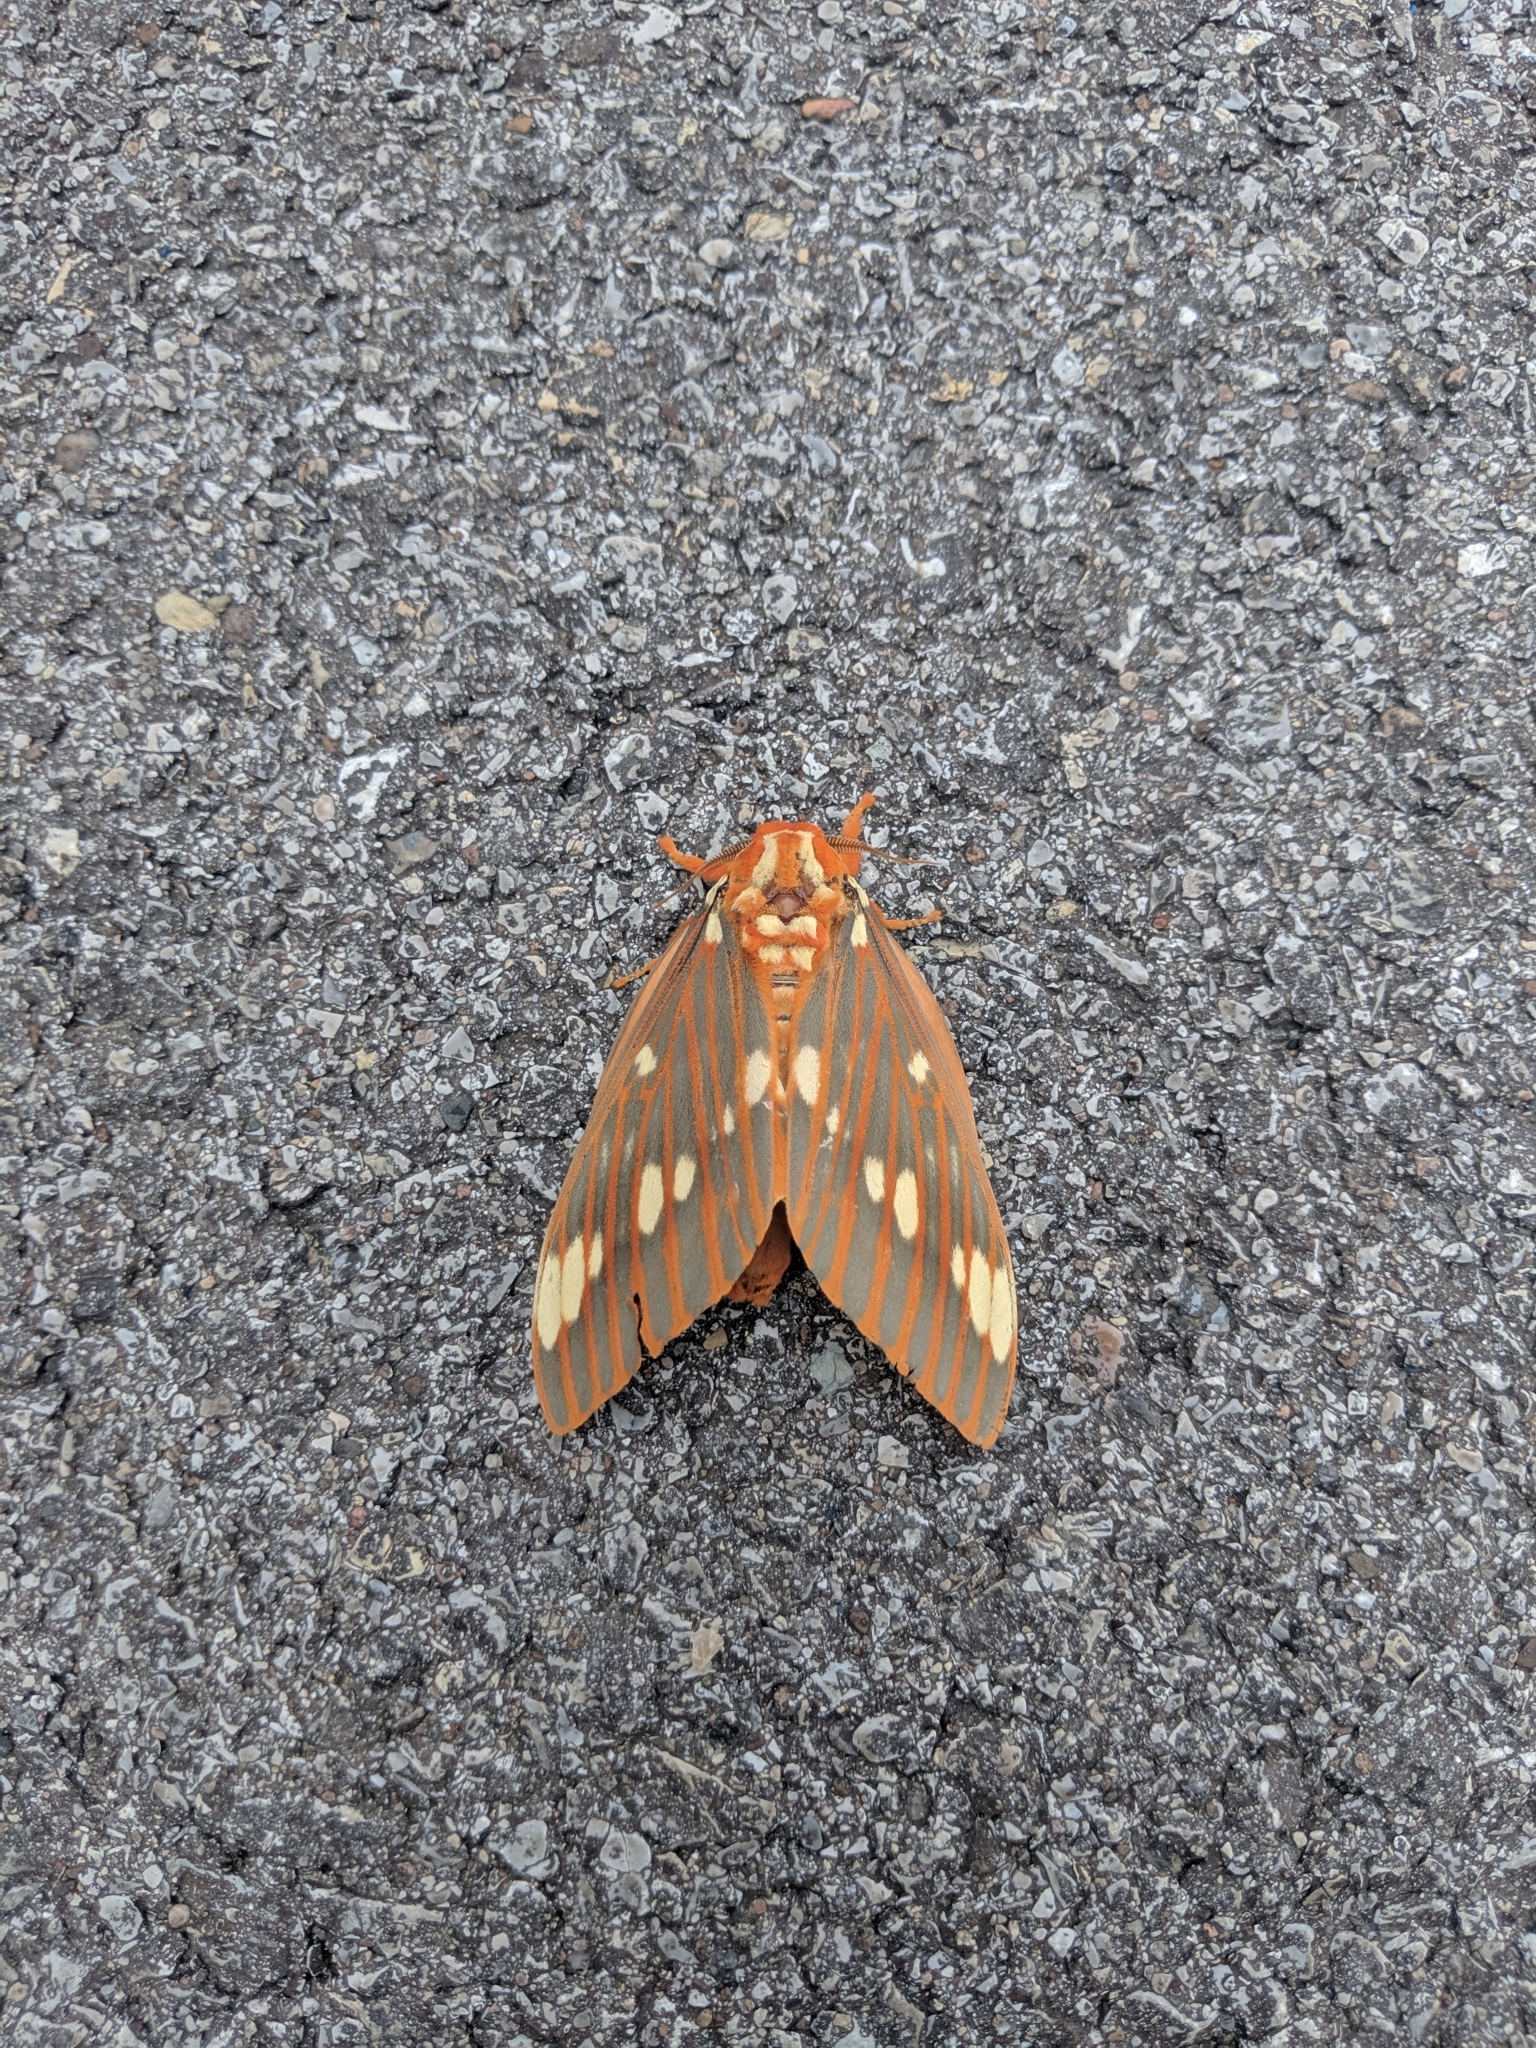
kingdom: Animalia
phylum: Arthropoda
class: Insecta
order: Lepidoptera
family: Saturniidae
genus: Citheronia
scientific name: Citheronia regalis
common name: Hickory horned devil
